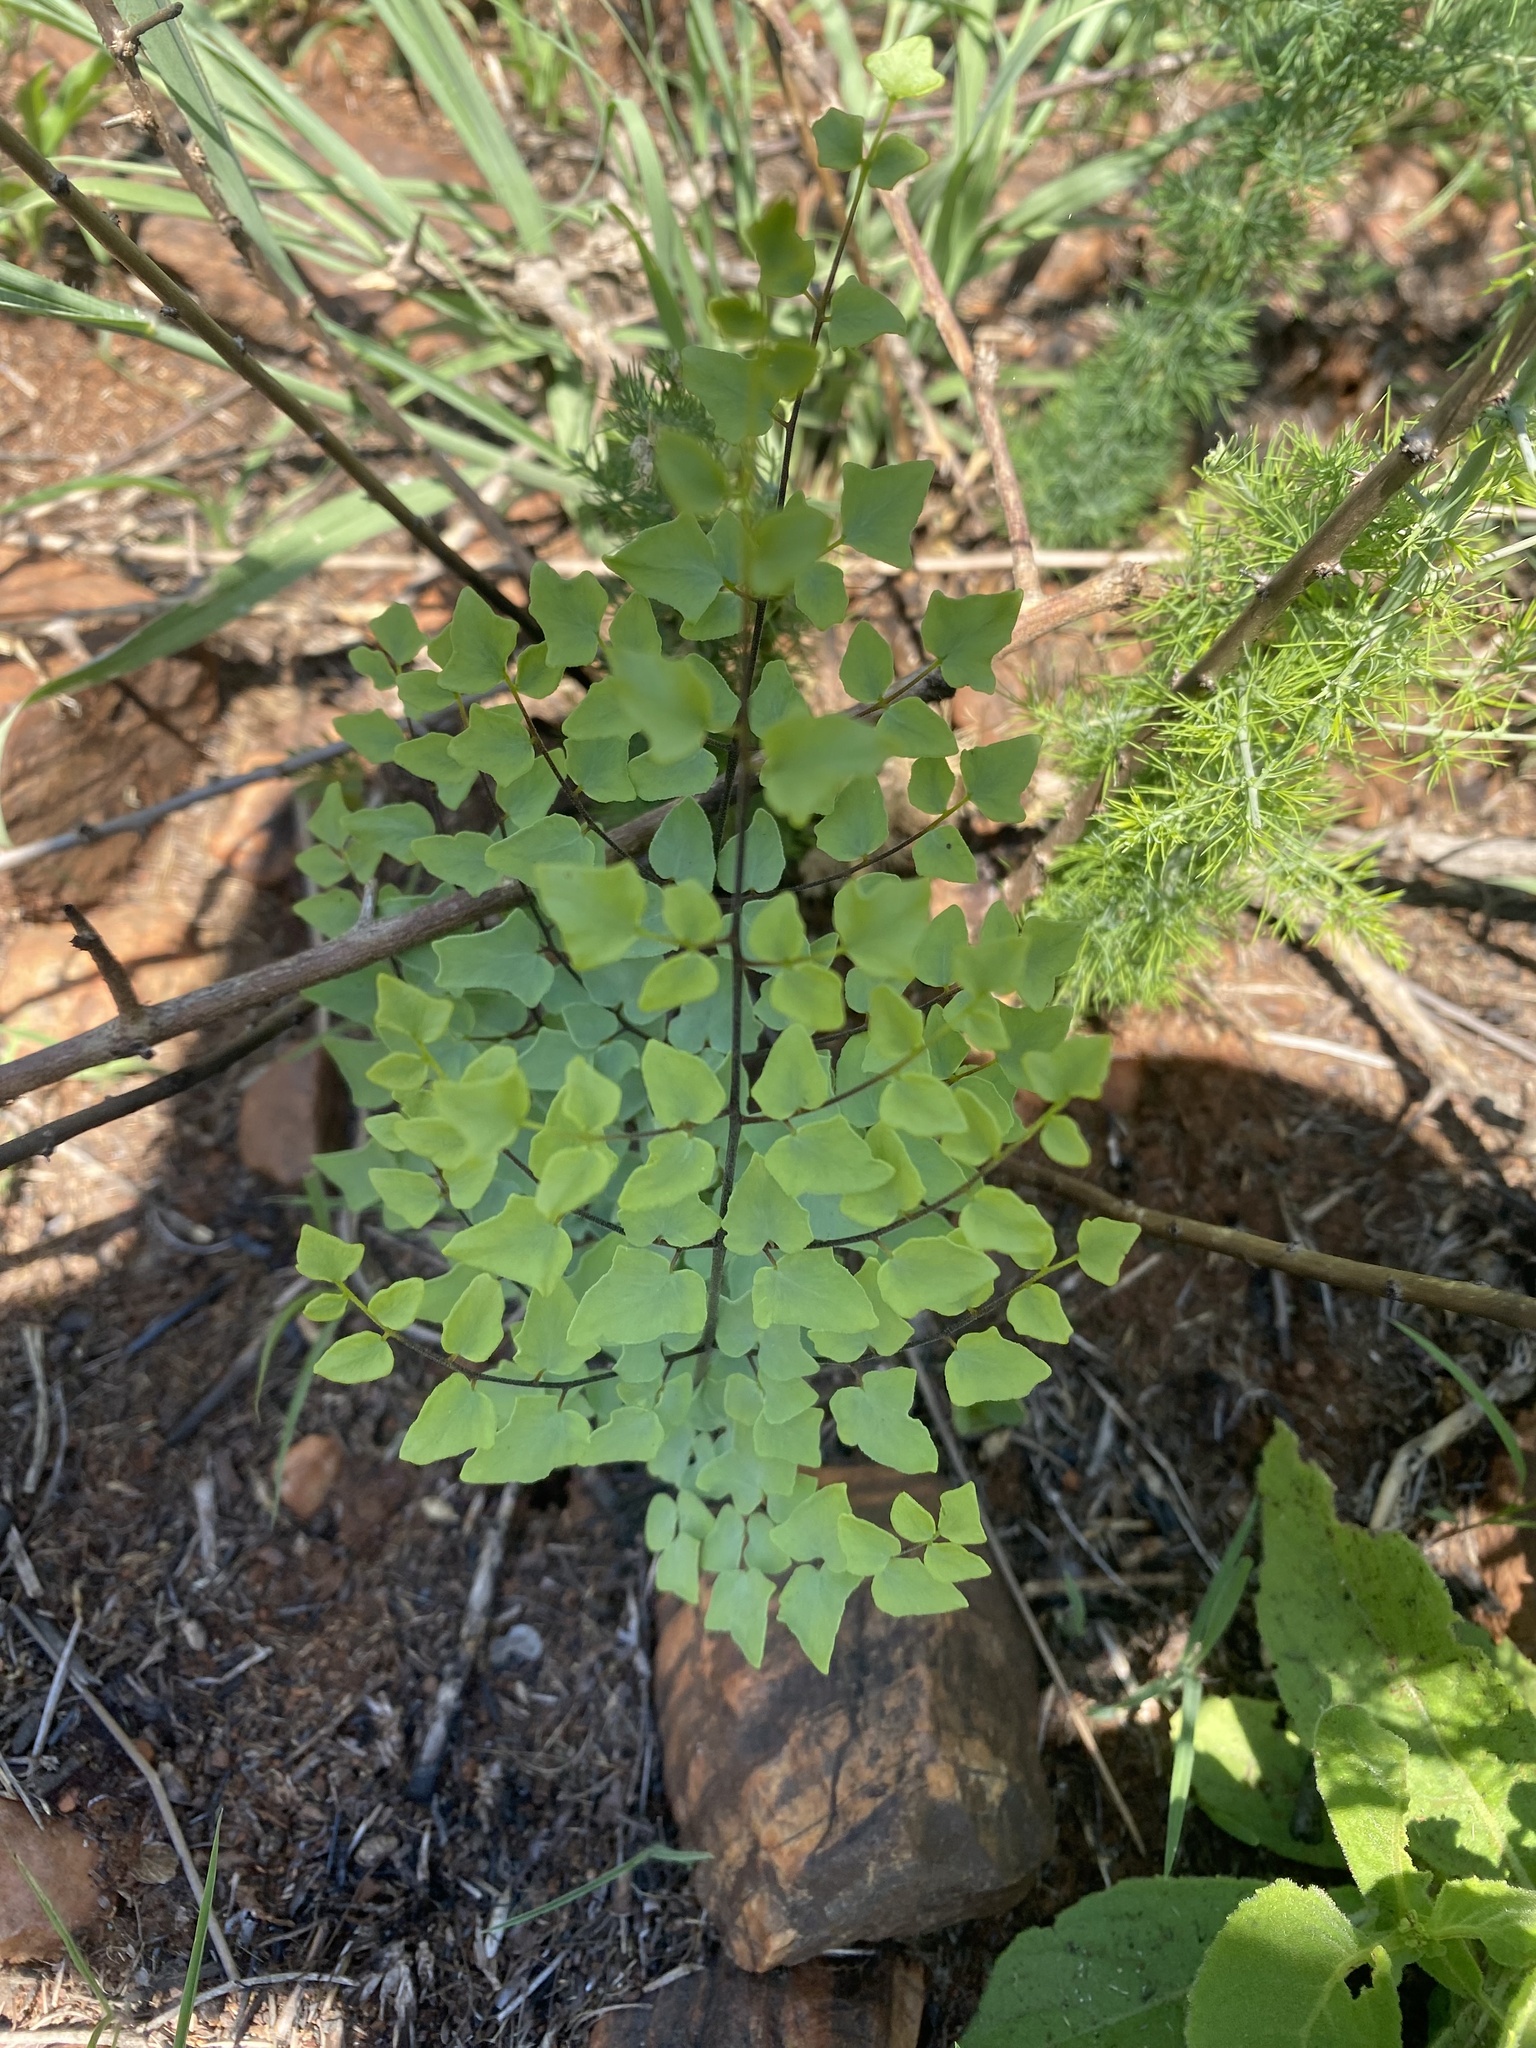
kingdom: Plantae
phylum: Tracheophyta
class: Polypodiopsida
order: Polypodiales
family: Pteridaceae
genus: Pellaea
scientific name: Pellaea calomelanos
